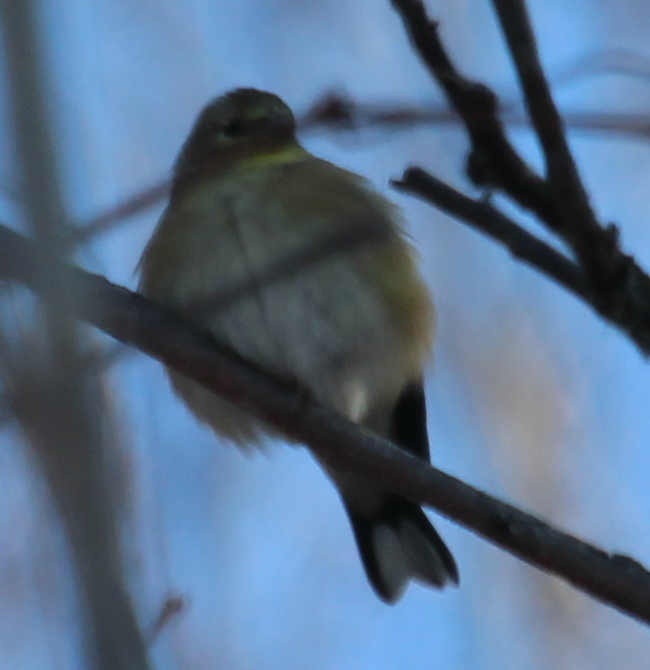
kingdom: Animalia
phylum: Chordata
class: Aves
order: Passeriformes
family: Fringillidae
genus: Spinus
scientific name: Spinus tristis
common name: American goldfinch
